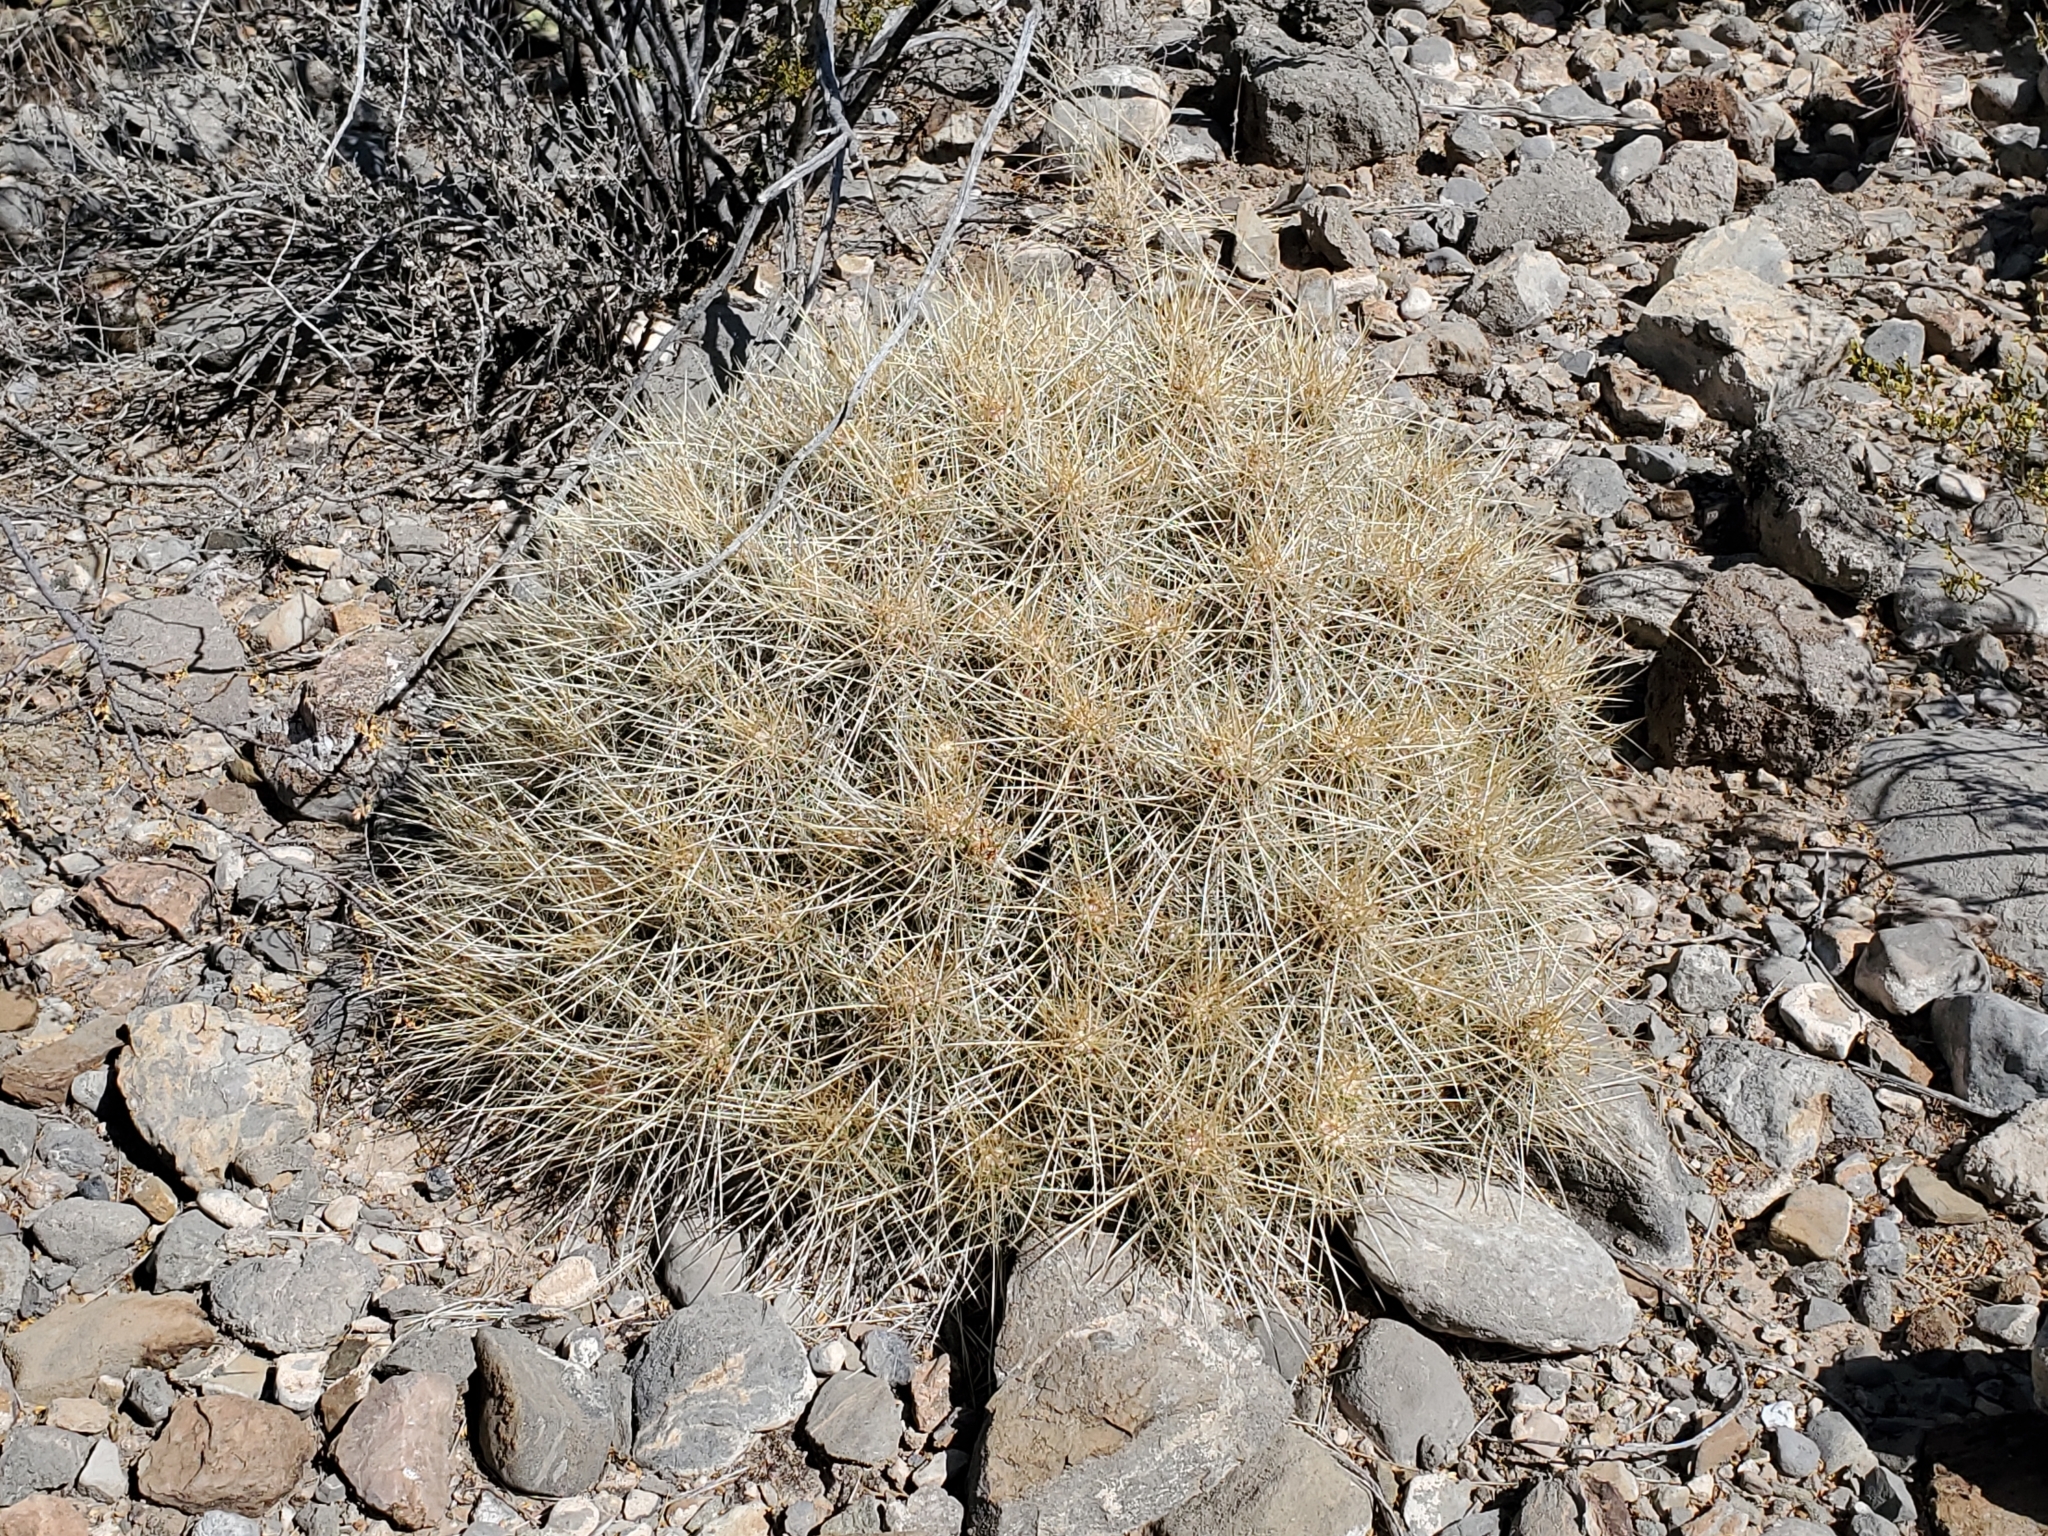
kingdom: Plantae
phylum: Tracheophyta
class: Magnoliopsida
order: Caryophyllales
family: Cactaceae
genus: Echinocereus
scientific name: Echinocereus stramineus
